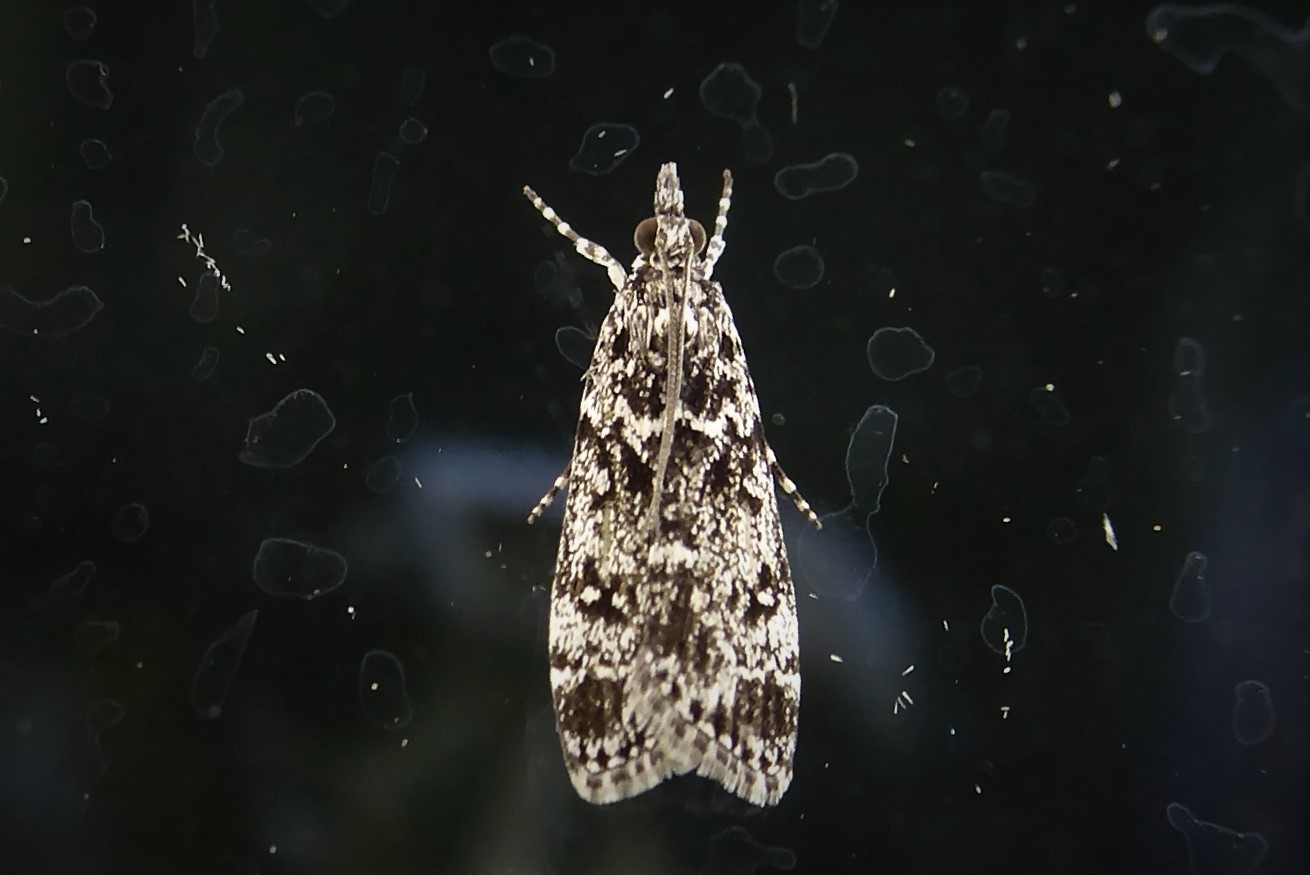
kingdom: Animalia
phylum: Arthropoda
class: Insecta
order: Lepidoptera
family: Crambidae
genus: Eudonia
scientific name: Eudonia philerga
